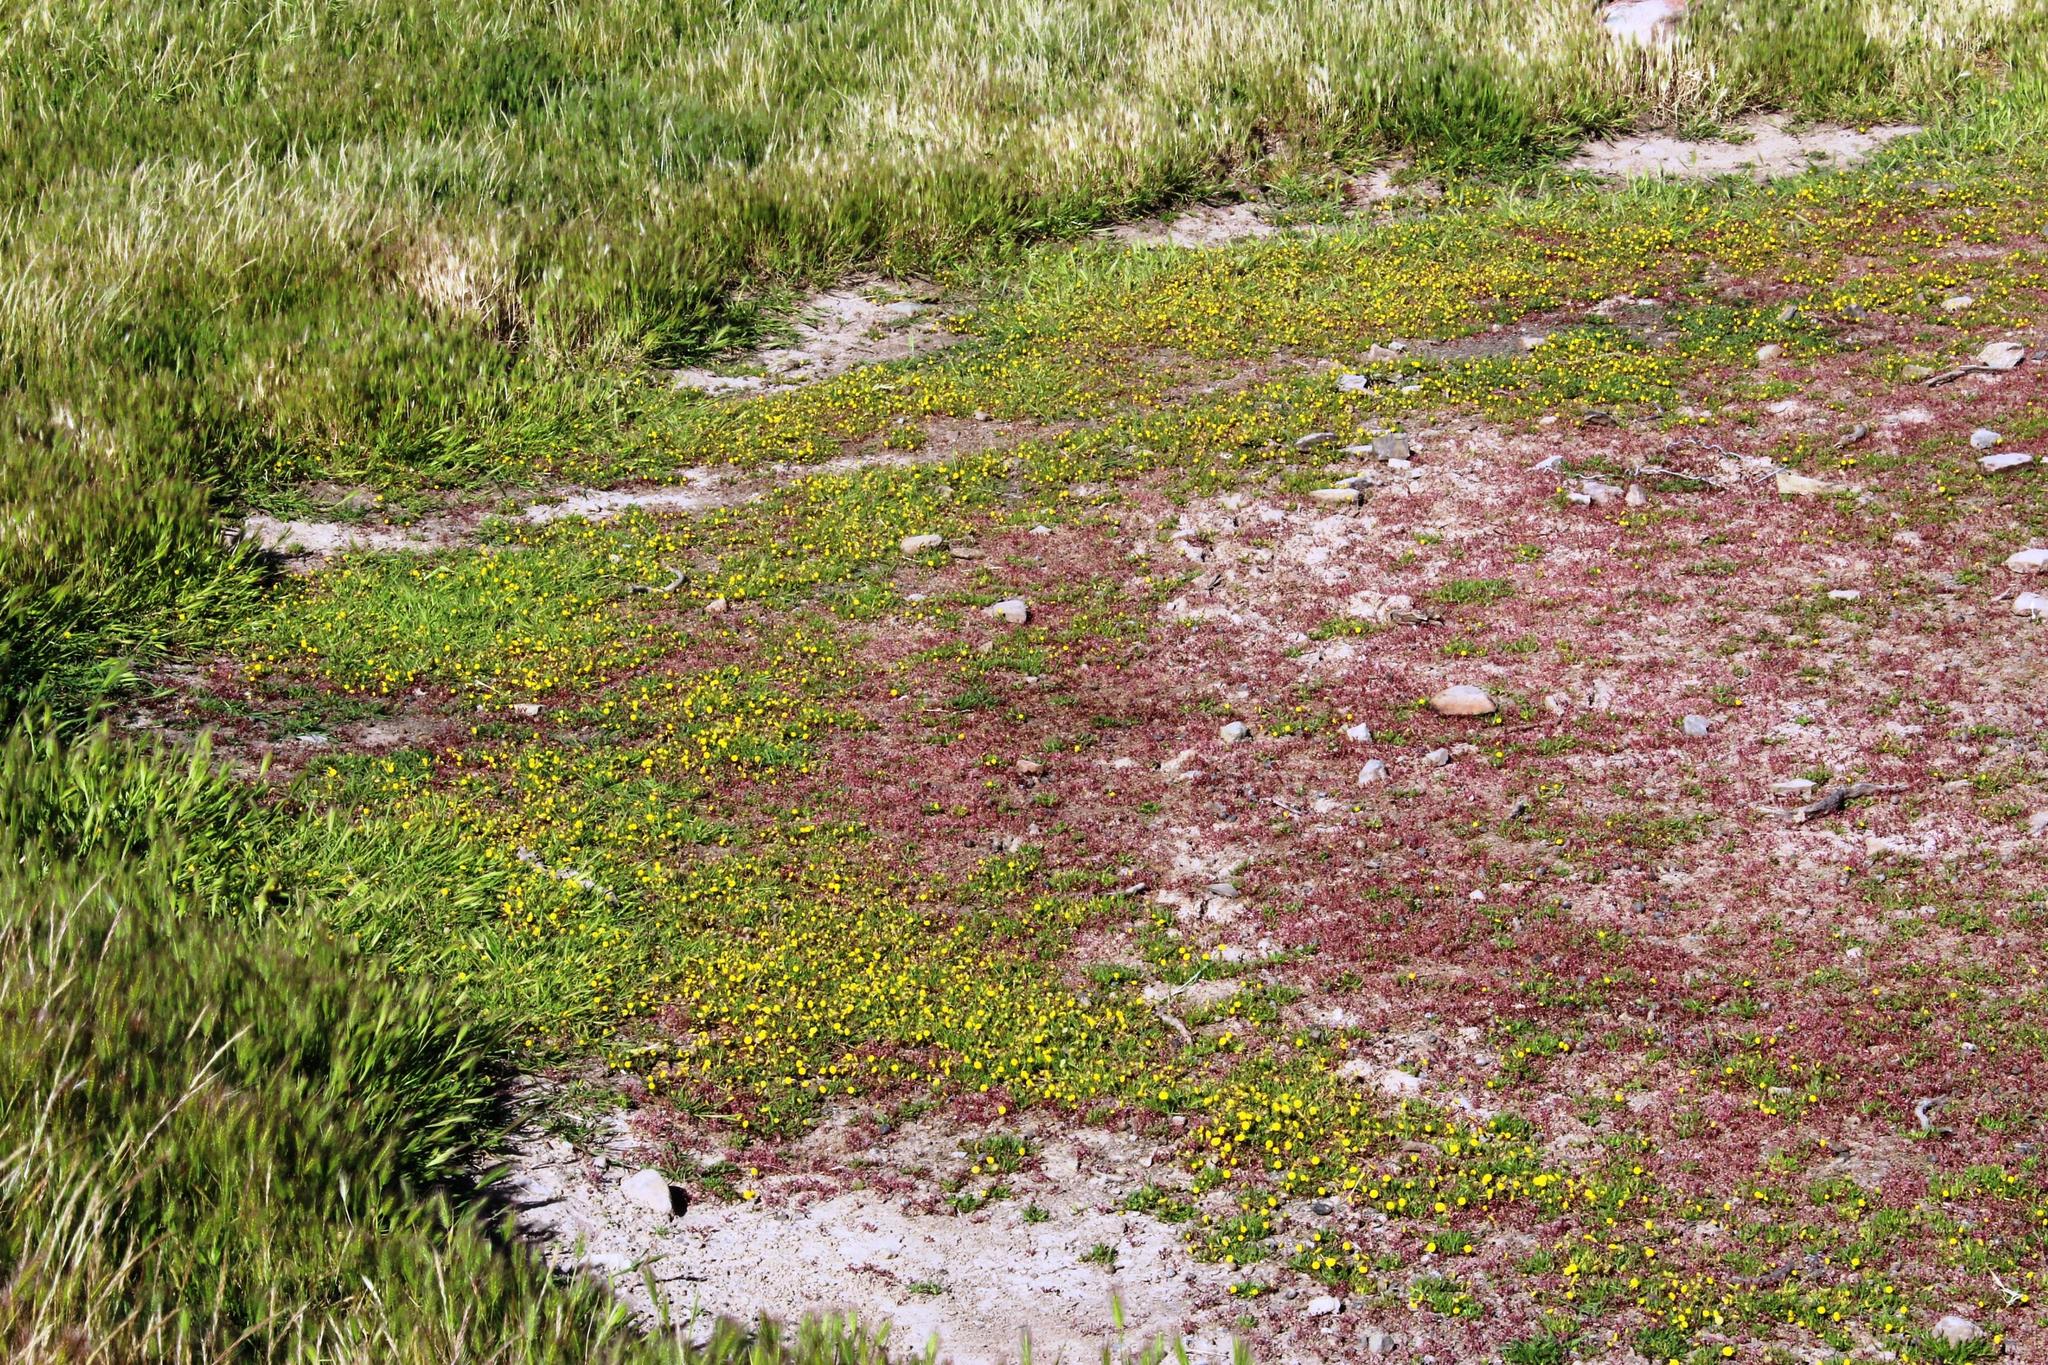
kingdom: Plantae
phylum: Tracheophyta
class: Magnoliopsida
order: Asterales
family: Asteraceae
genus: Cotula
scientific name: Cotula coronopifolia
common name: Buttonweed
